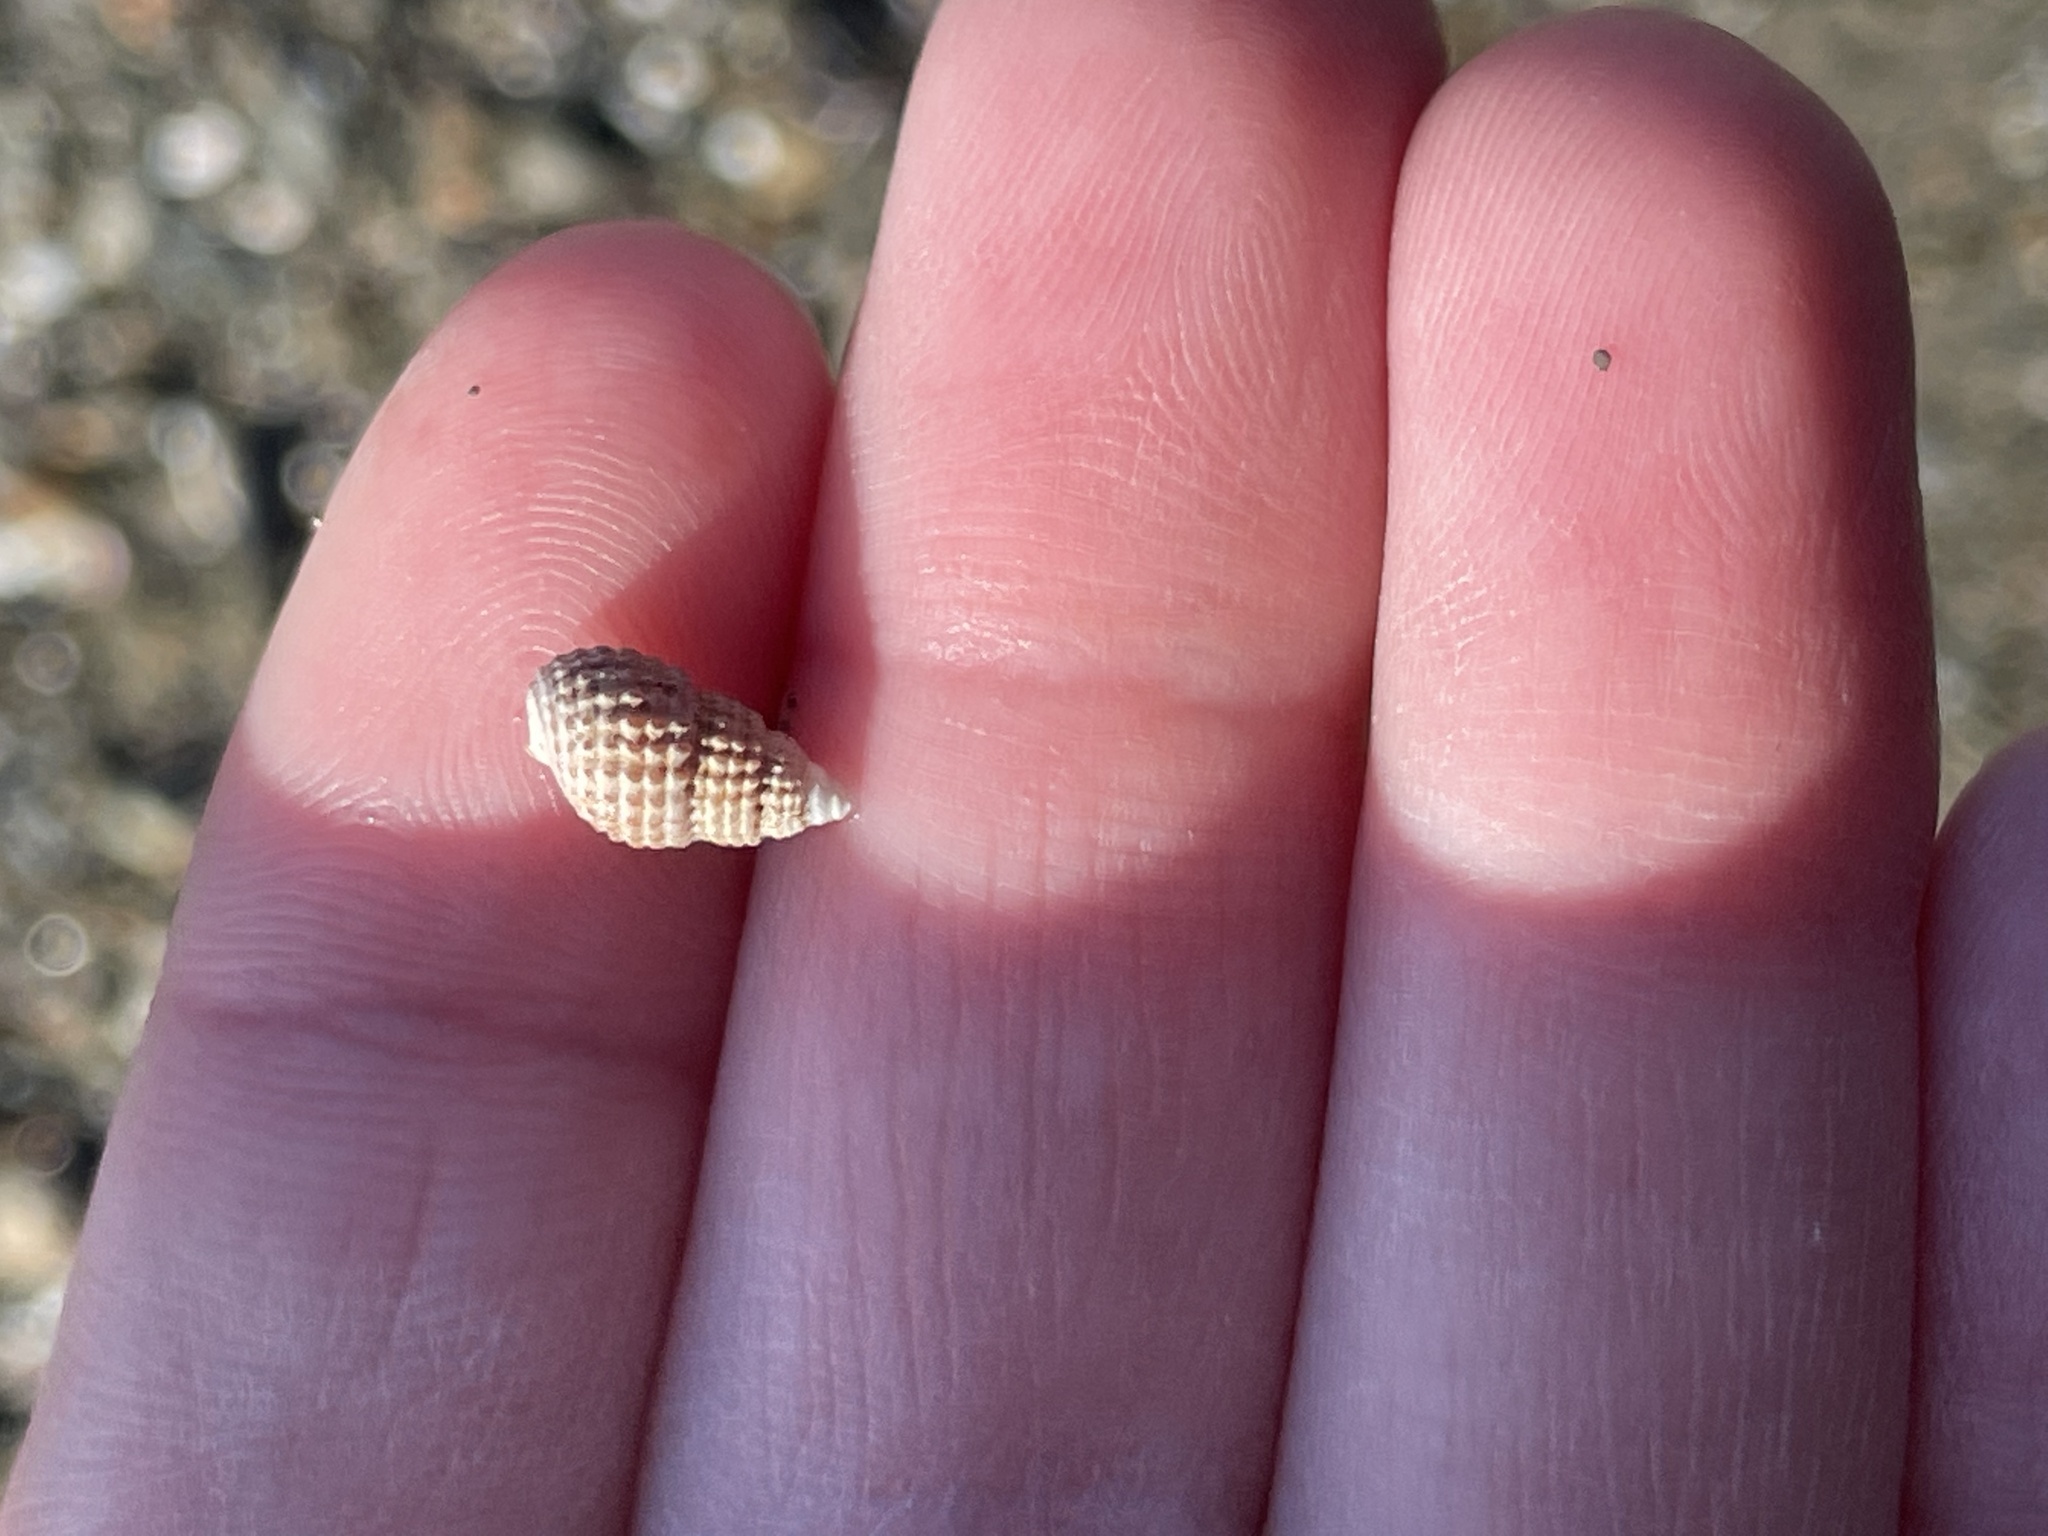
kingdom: Animalia
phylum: Mollusca
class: Gastropoda
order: Neogastropoda
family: Nassariidae
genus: Ilyanassa
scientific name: Ilyanassa trivittata
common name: Three-line mudsnail
